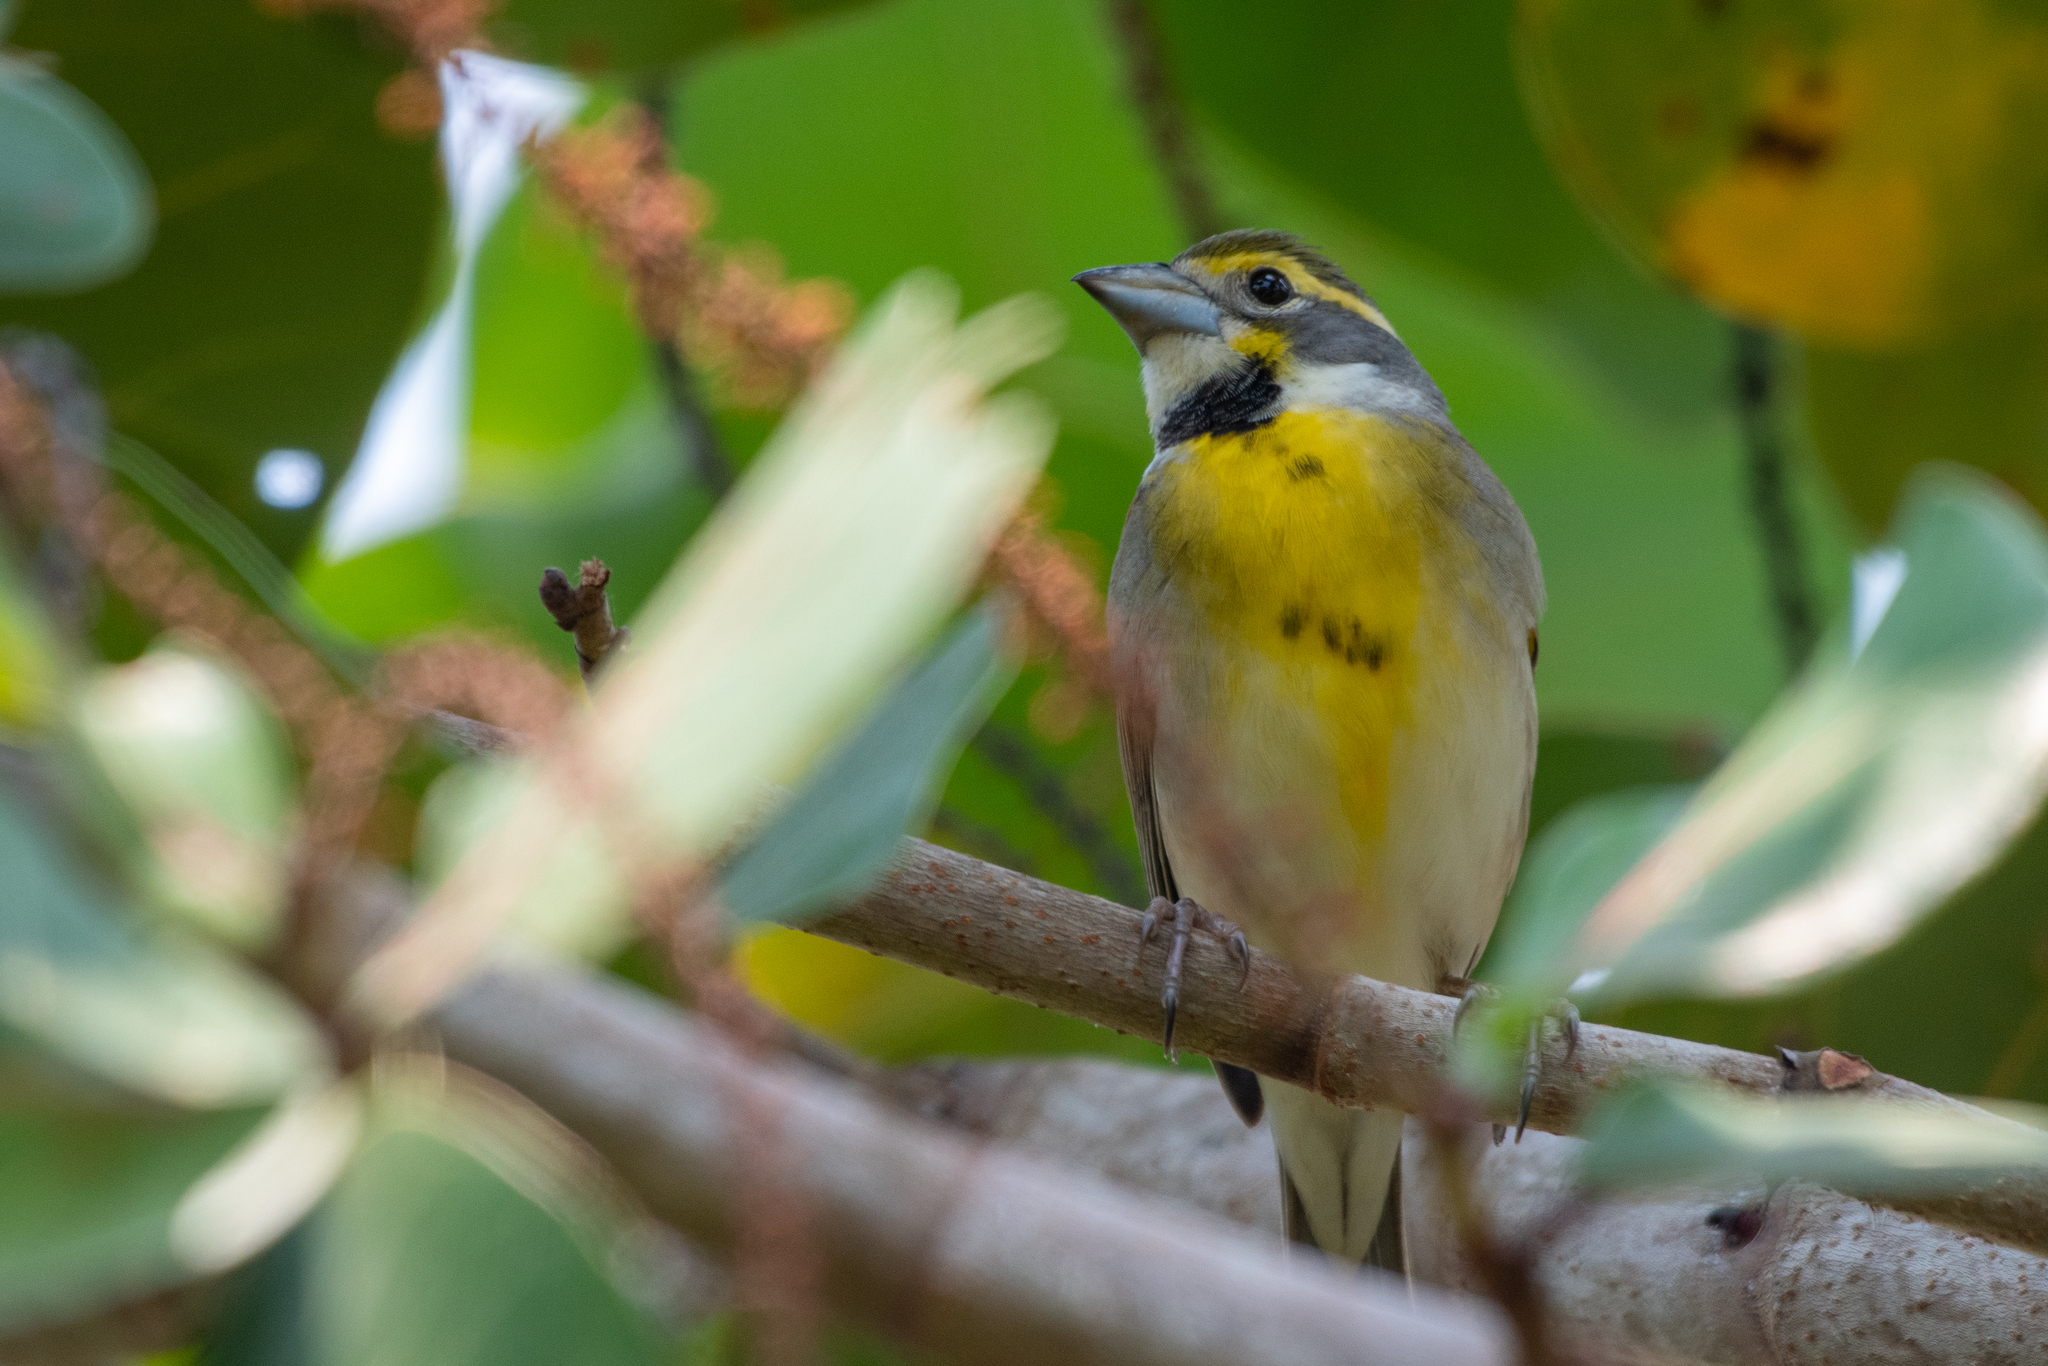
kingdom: Animalia
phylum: Chordata
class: Aves
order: Passeriformes
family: Cardinalidae
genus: Spiza
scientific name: Spiza americana
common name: Dickcissel
